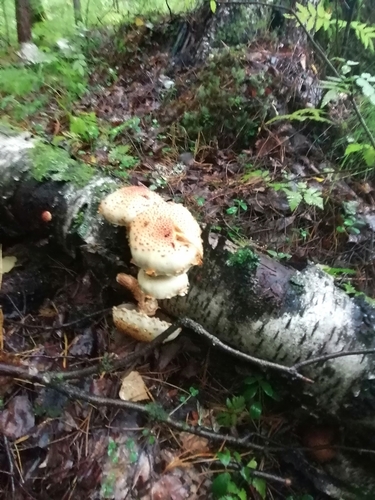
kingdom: Fungi
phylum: Basidiomycota
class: Agaricomycetes
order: Agaricales
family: Strophariaceae
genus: Pholiota
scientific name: Pholiota squarrosa
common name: Shaggy pholiota
